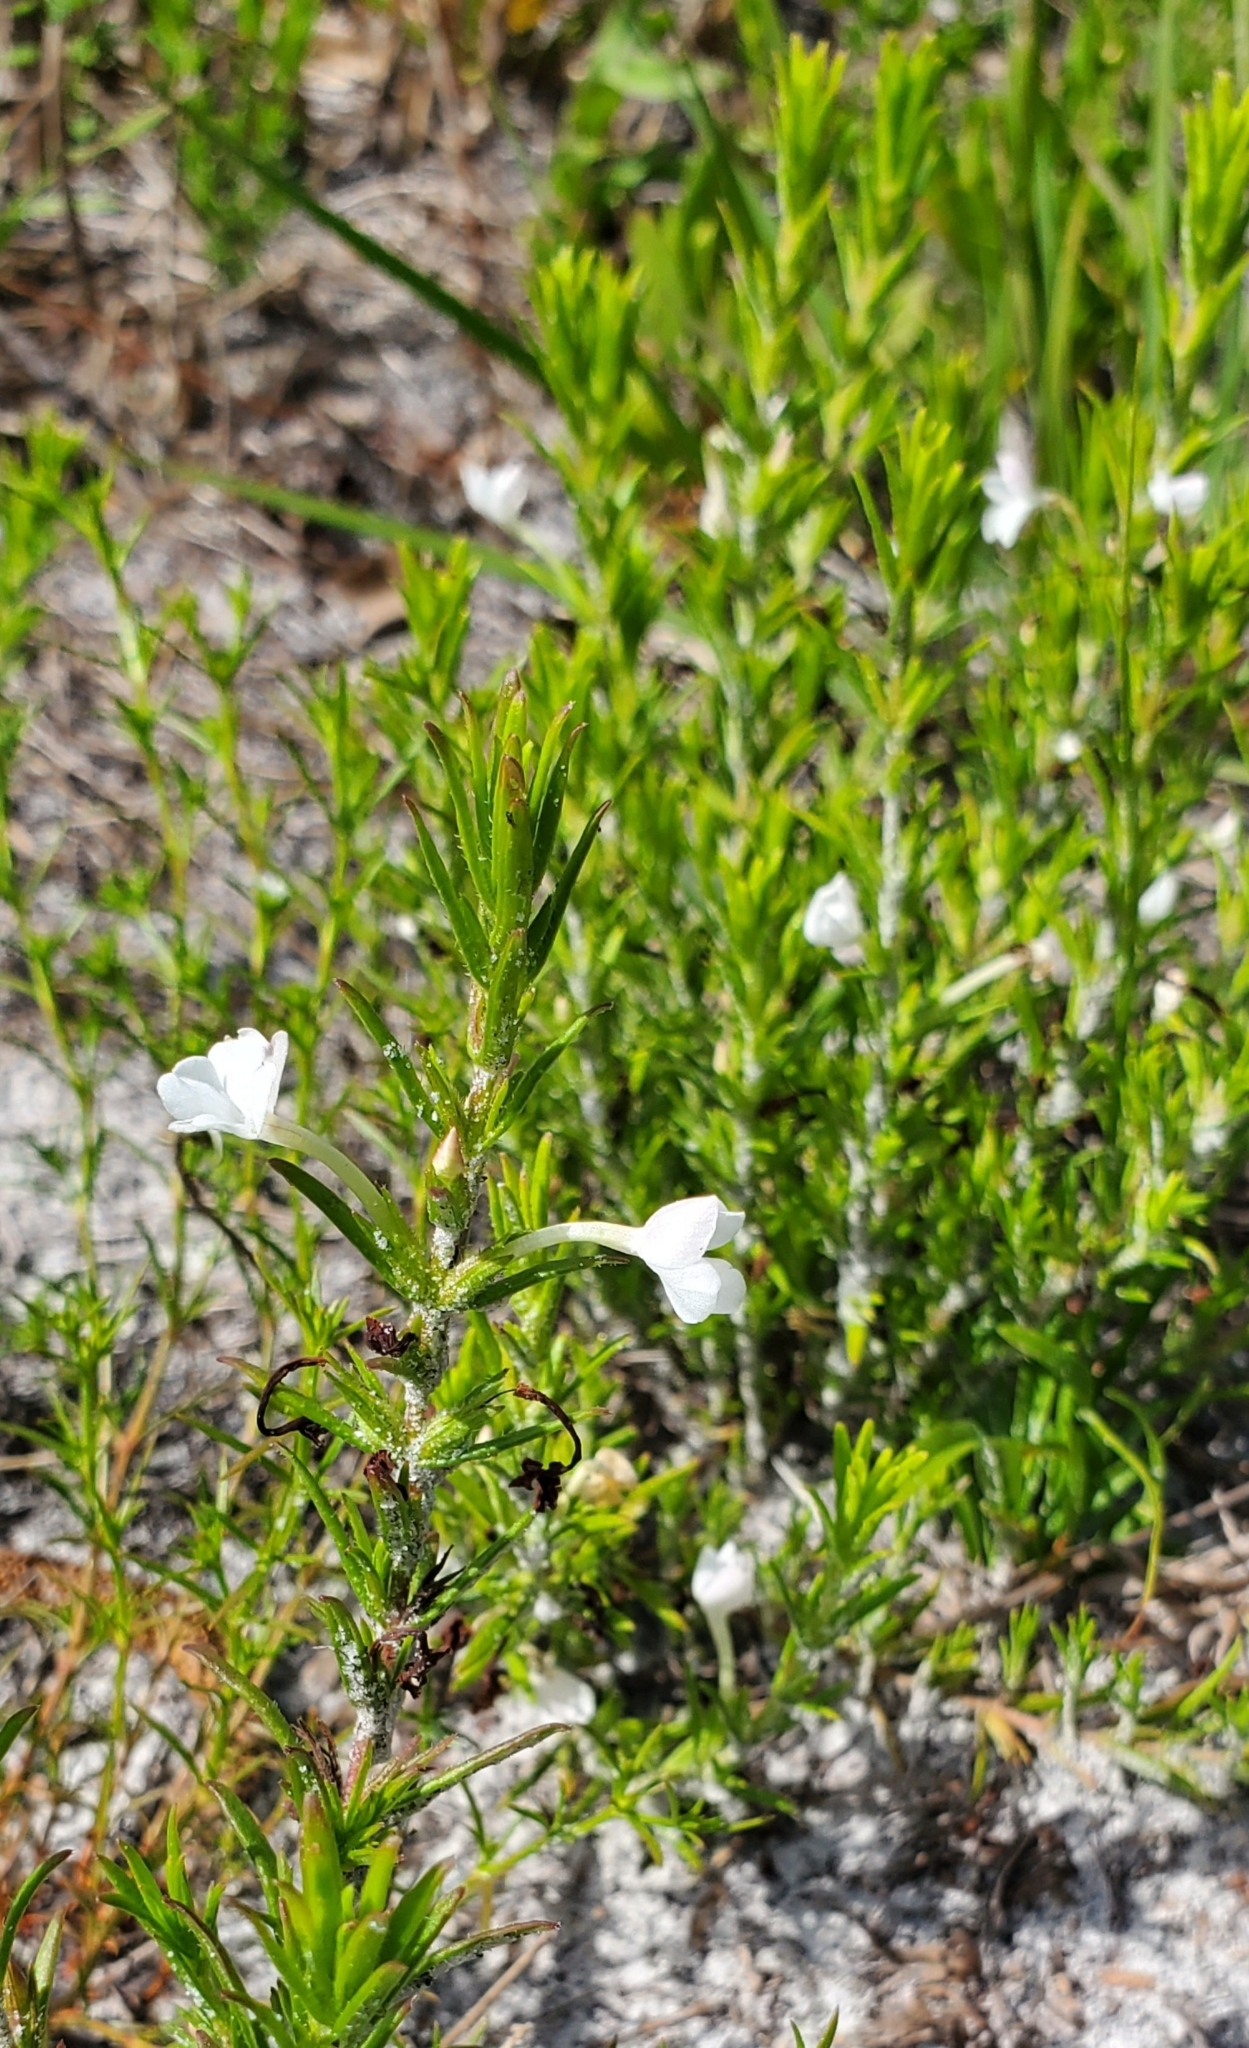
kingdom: Plantae
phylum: Tracheophyta
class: Magnoliopsida
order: Lamiales
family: Plantaginaceae
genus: Gratiola
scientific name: Gratiola hispida
